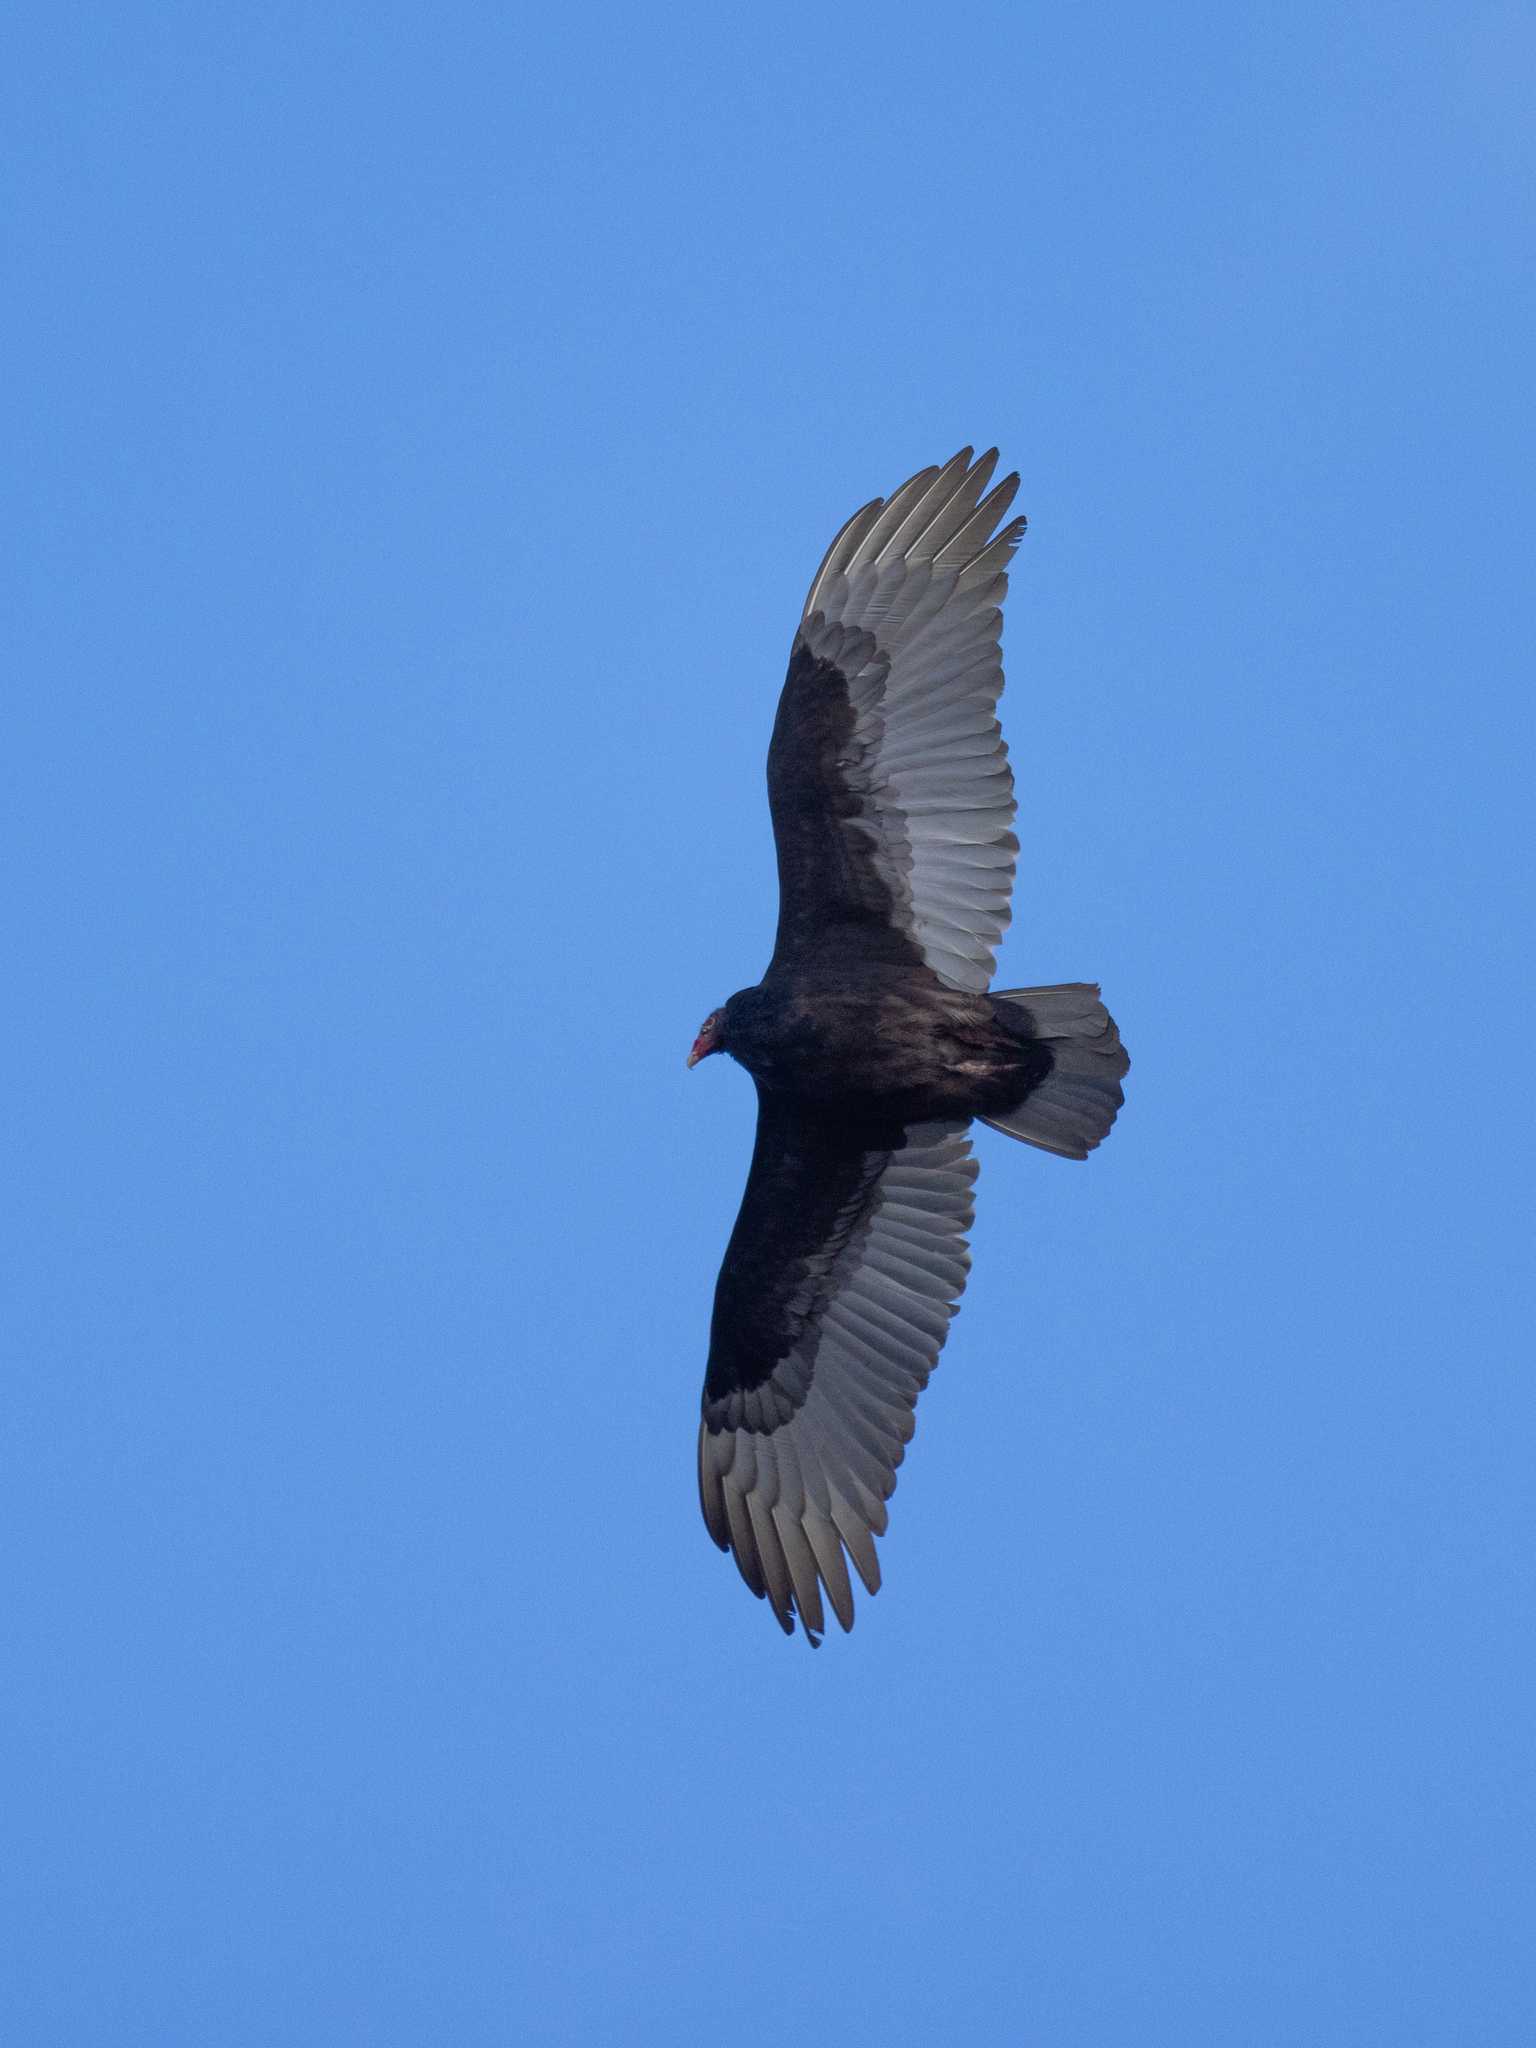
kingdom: Animalia
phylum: Chordata
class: Aves
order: Accipitriformes
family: Cathartidae
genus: Cathartes
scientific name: Cathartes aura
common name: Turkey vulture
